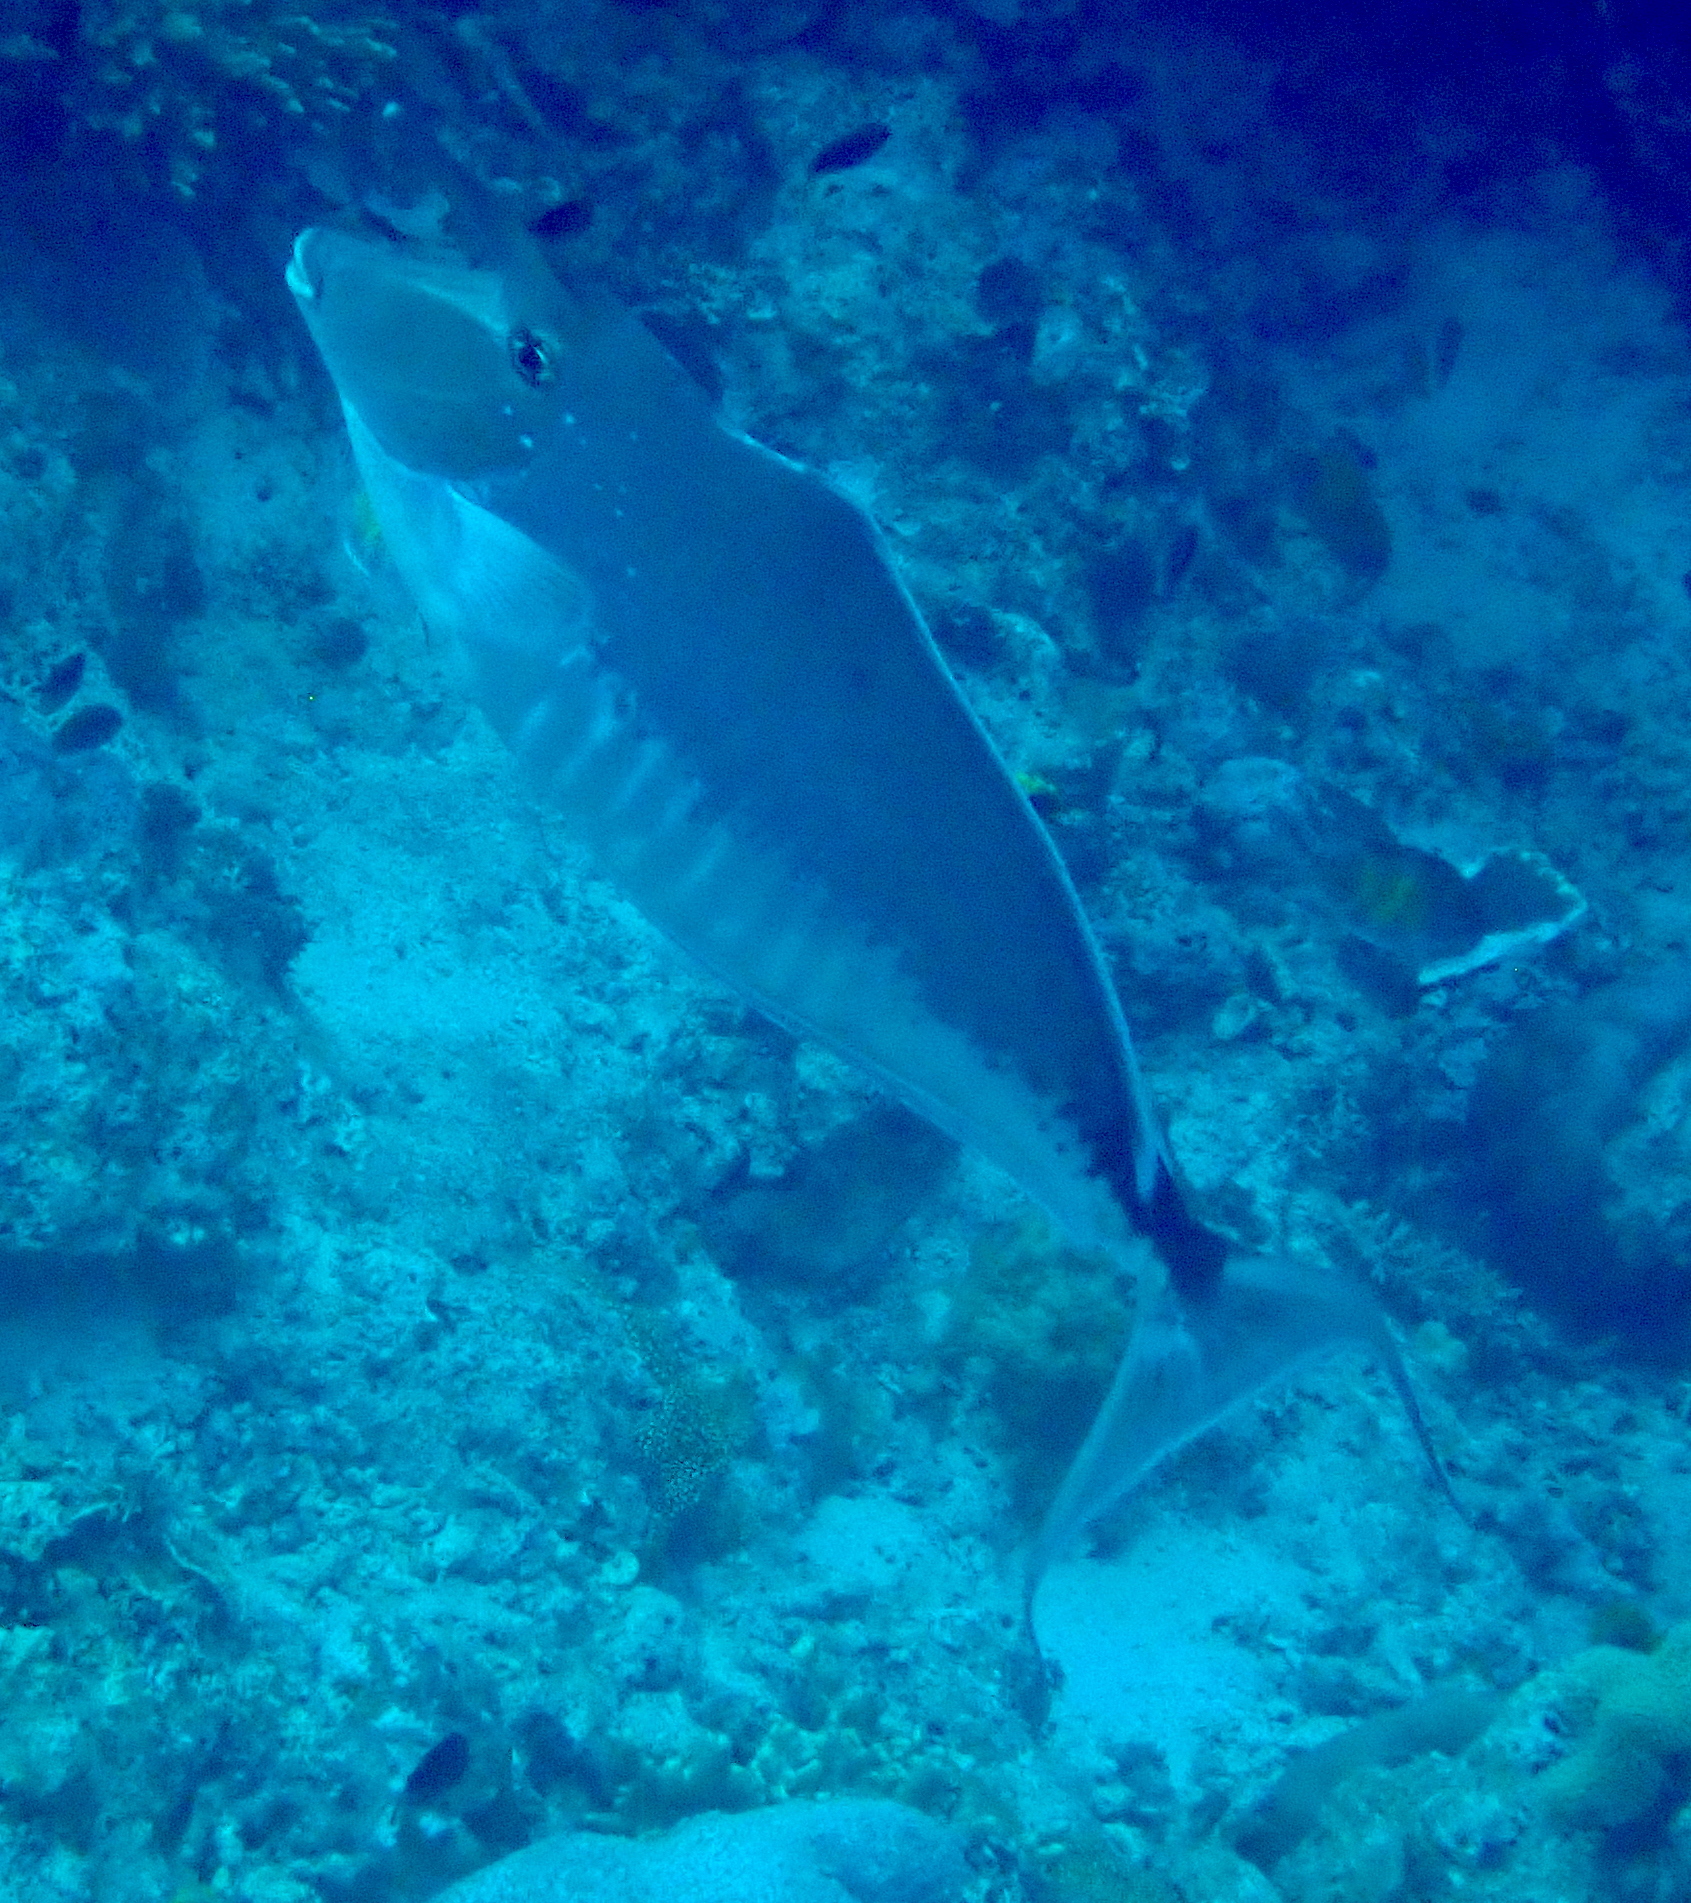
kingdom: Animalia
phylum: Chordata
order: Perciformes
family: Acanthuridae
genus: Naso
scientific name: Naso brachycentron
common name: Humpback unicornfish
